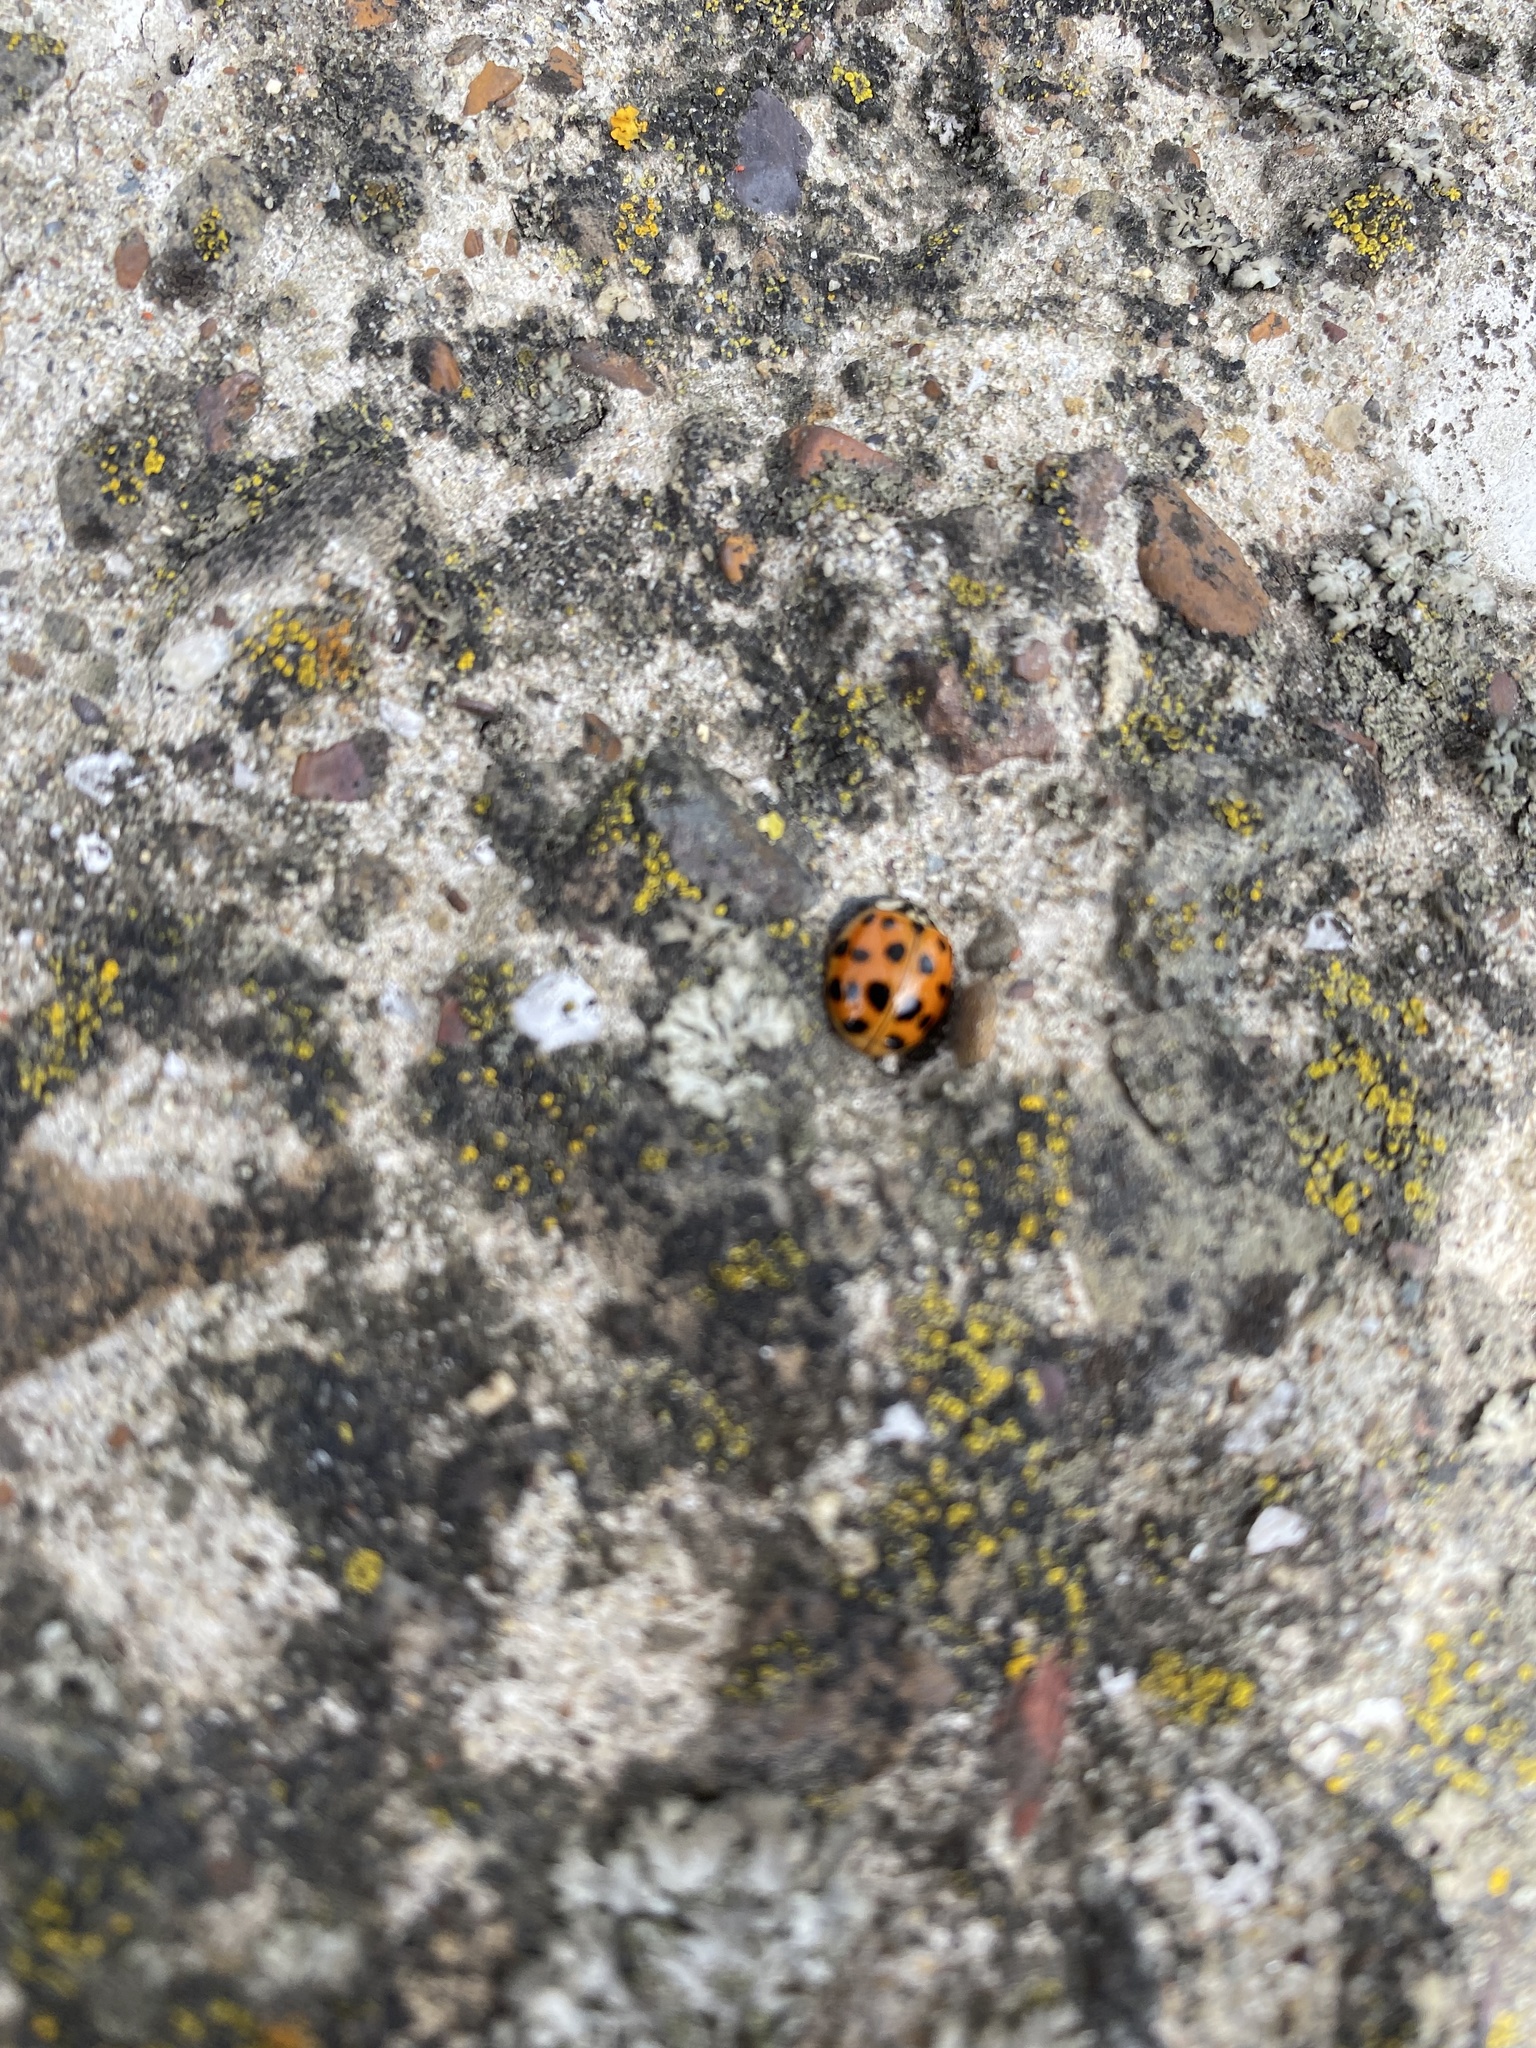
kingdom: Animalia
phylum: Arthropoda
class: Insecta
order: Coleoptera
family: Coccinellidae
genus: Harmonia
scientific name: Harmonia axyridis
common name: Harlequin ladybird
